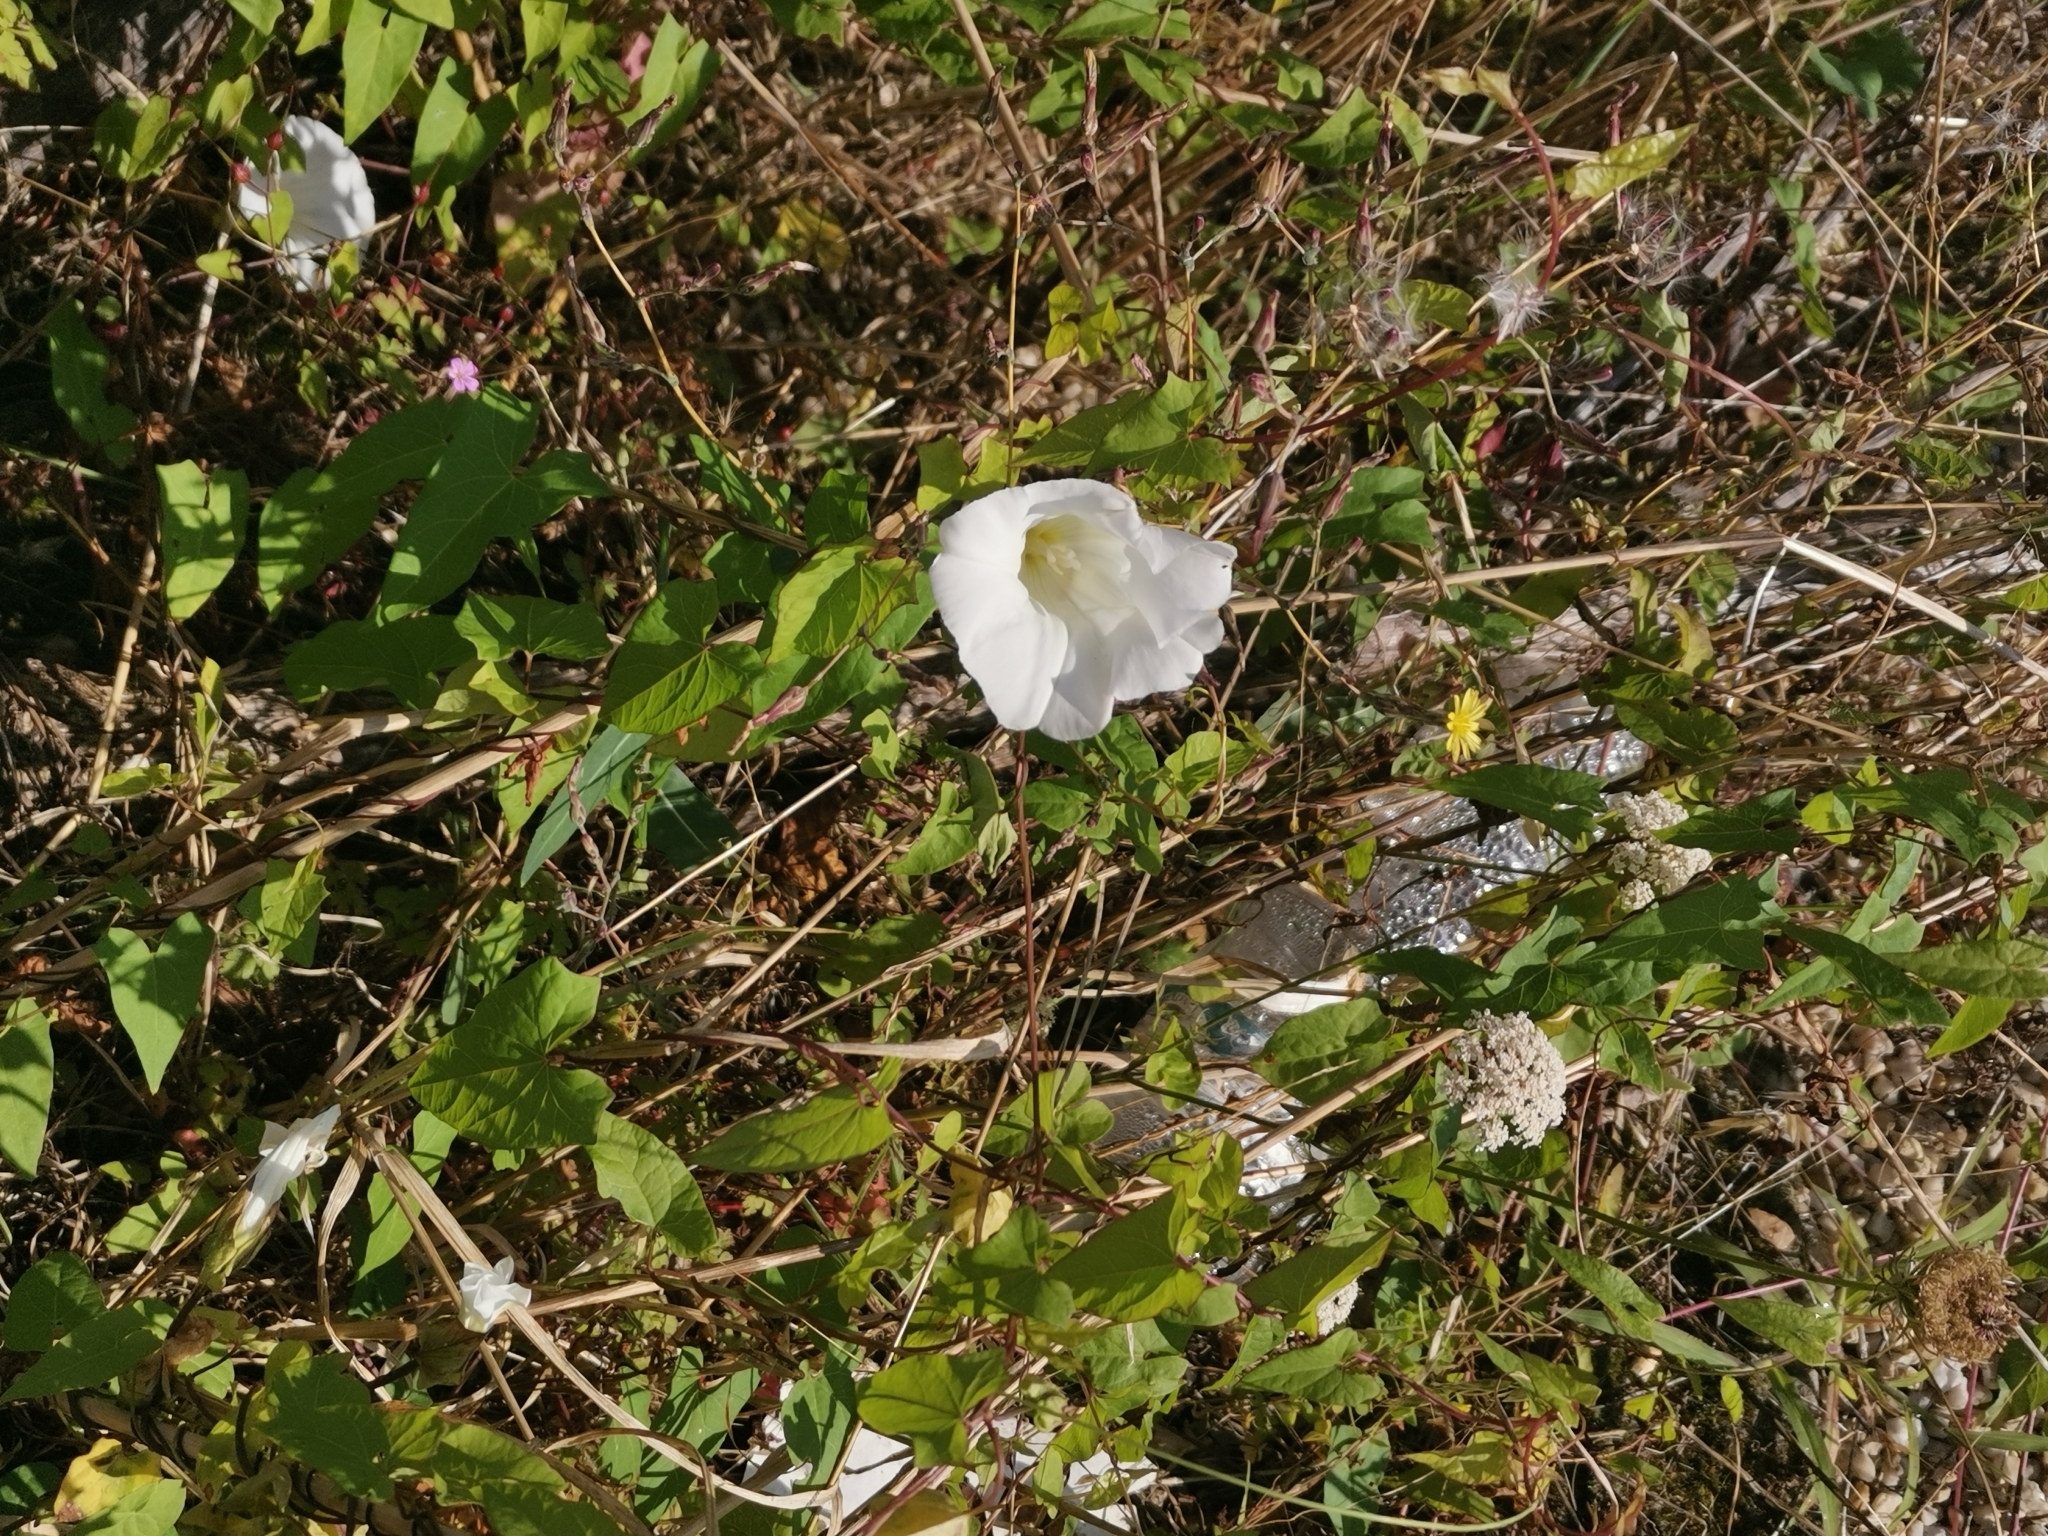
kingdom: Plantae
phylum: Tracheophyta
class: Magnoliopsida
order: Solanales
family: Convolvulaceae
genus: Calystegia
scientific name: Calystegia sepium
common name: Hedge bindweed
